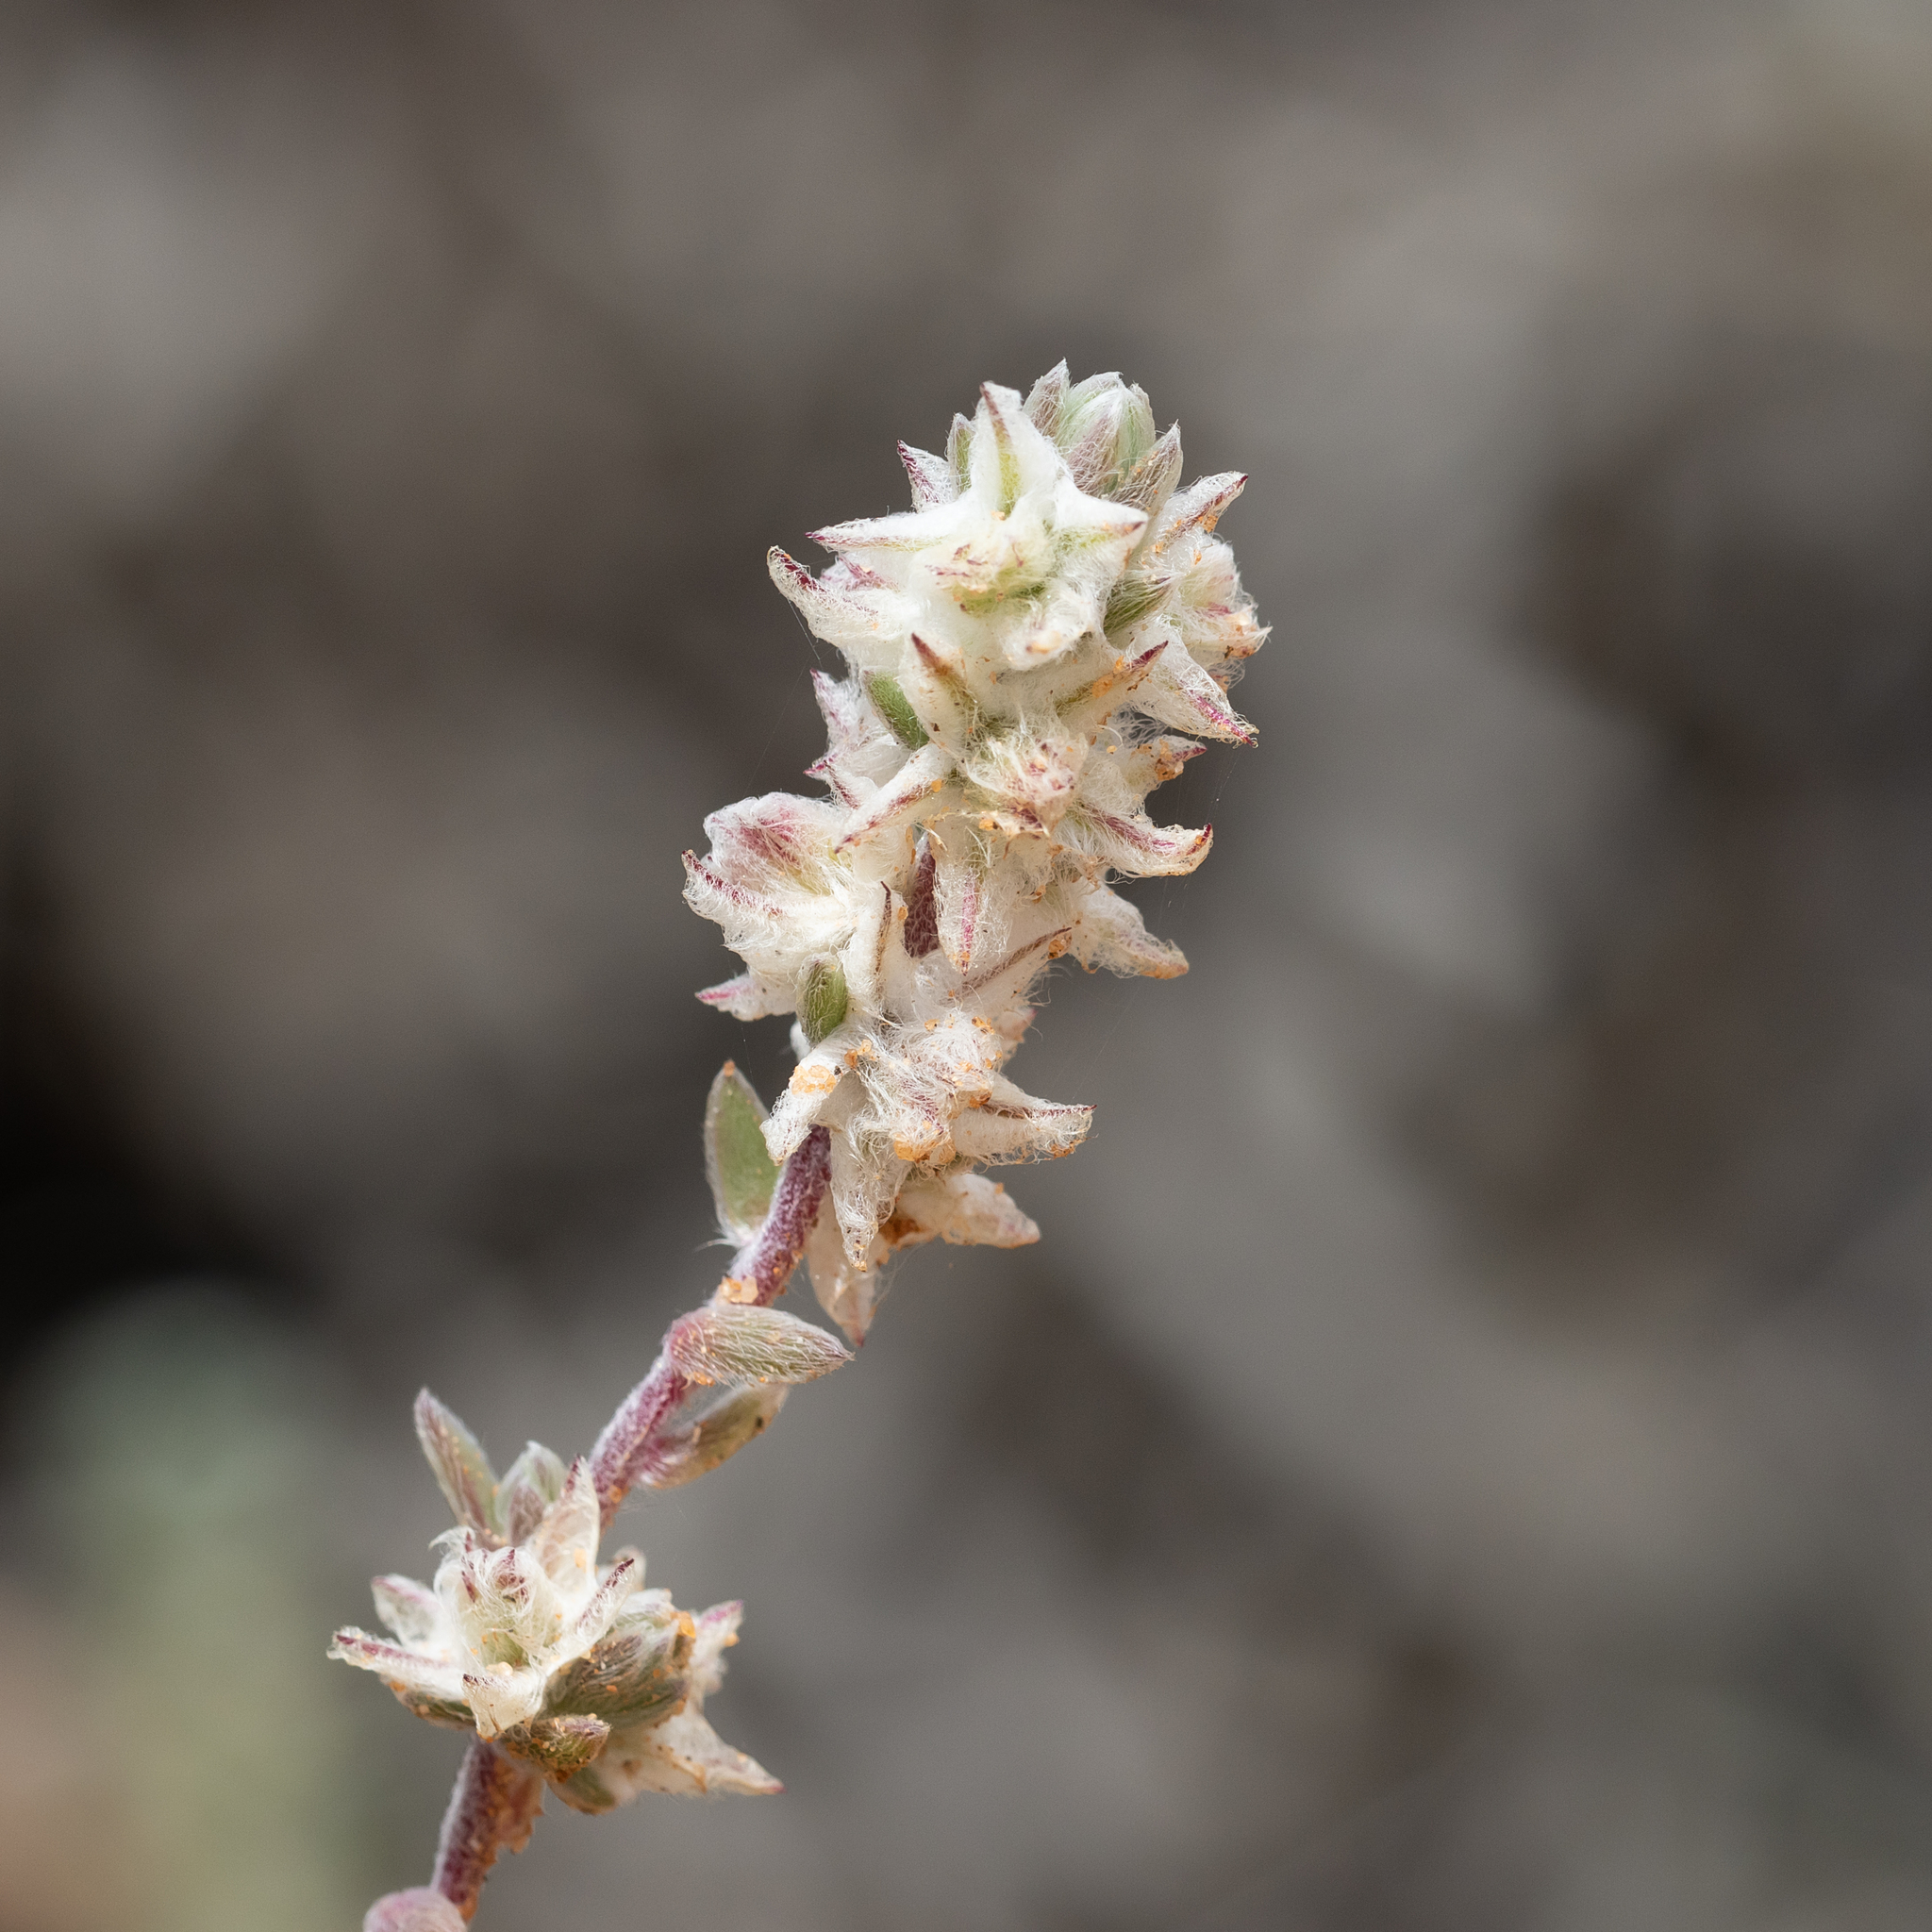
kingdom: Plantae
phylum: Tracheophyta
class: Magnoliopsida
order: Caryophyllales
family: Amaranthaceae
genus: Maireana
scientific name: Maireana sclerolaenoides
